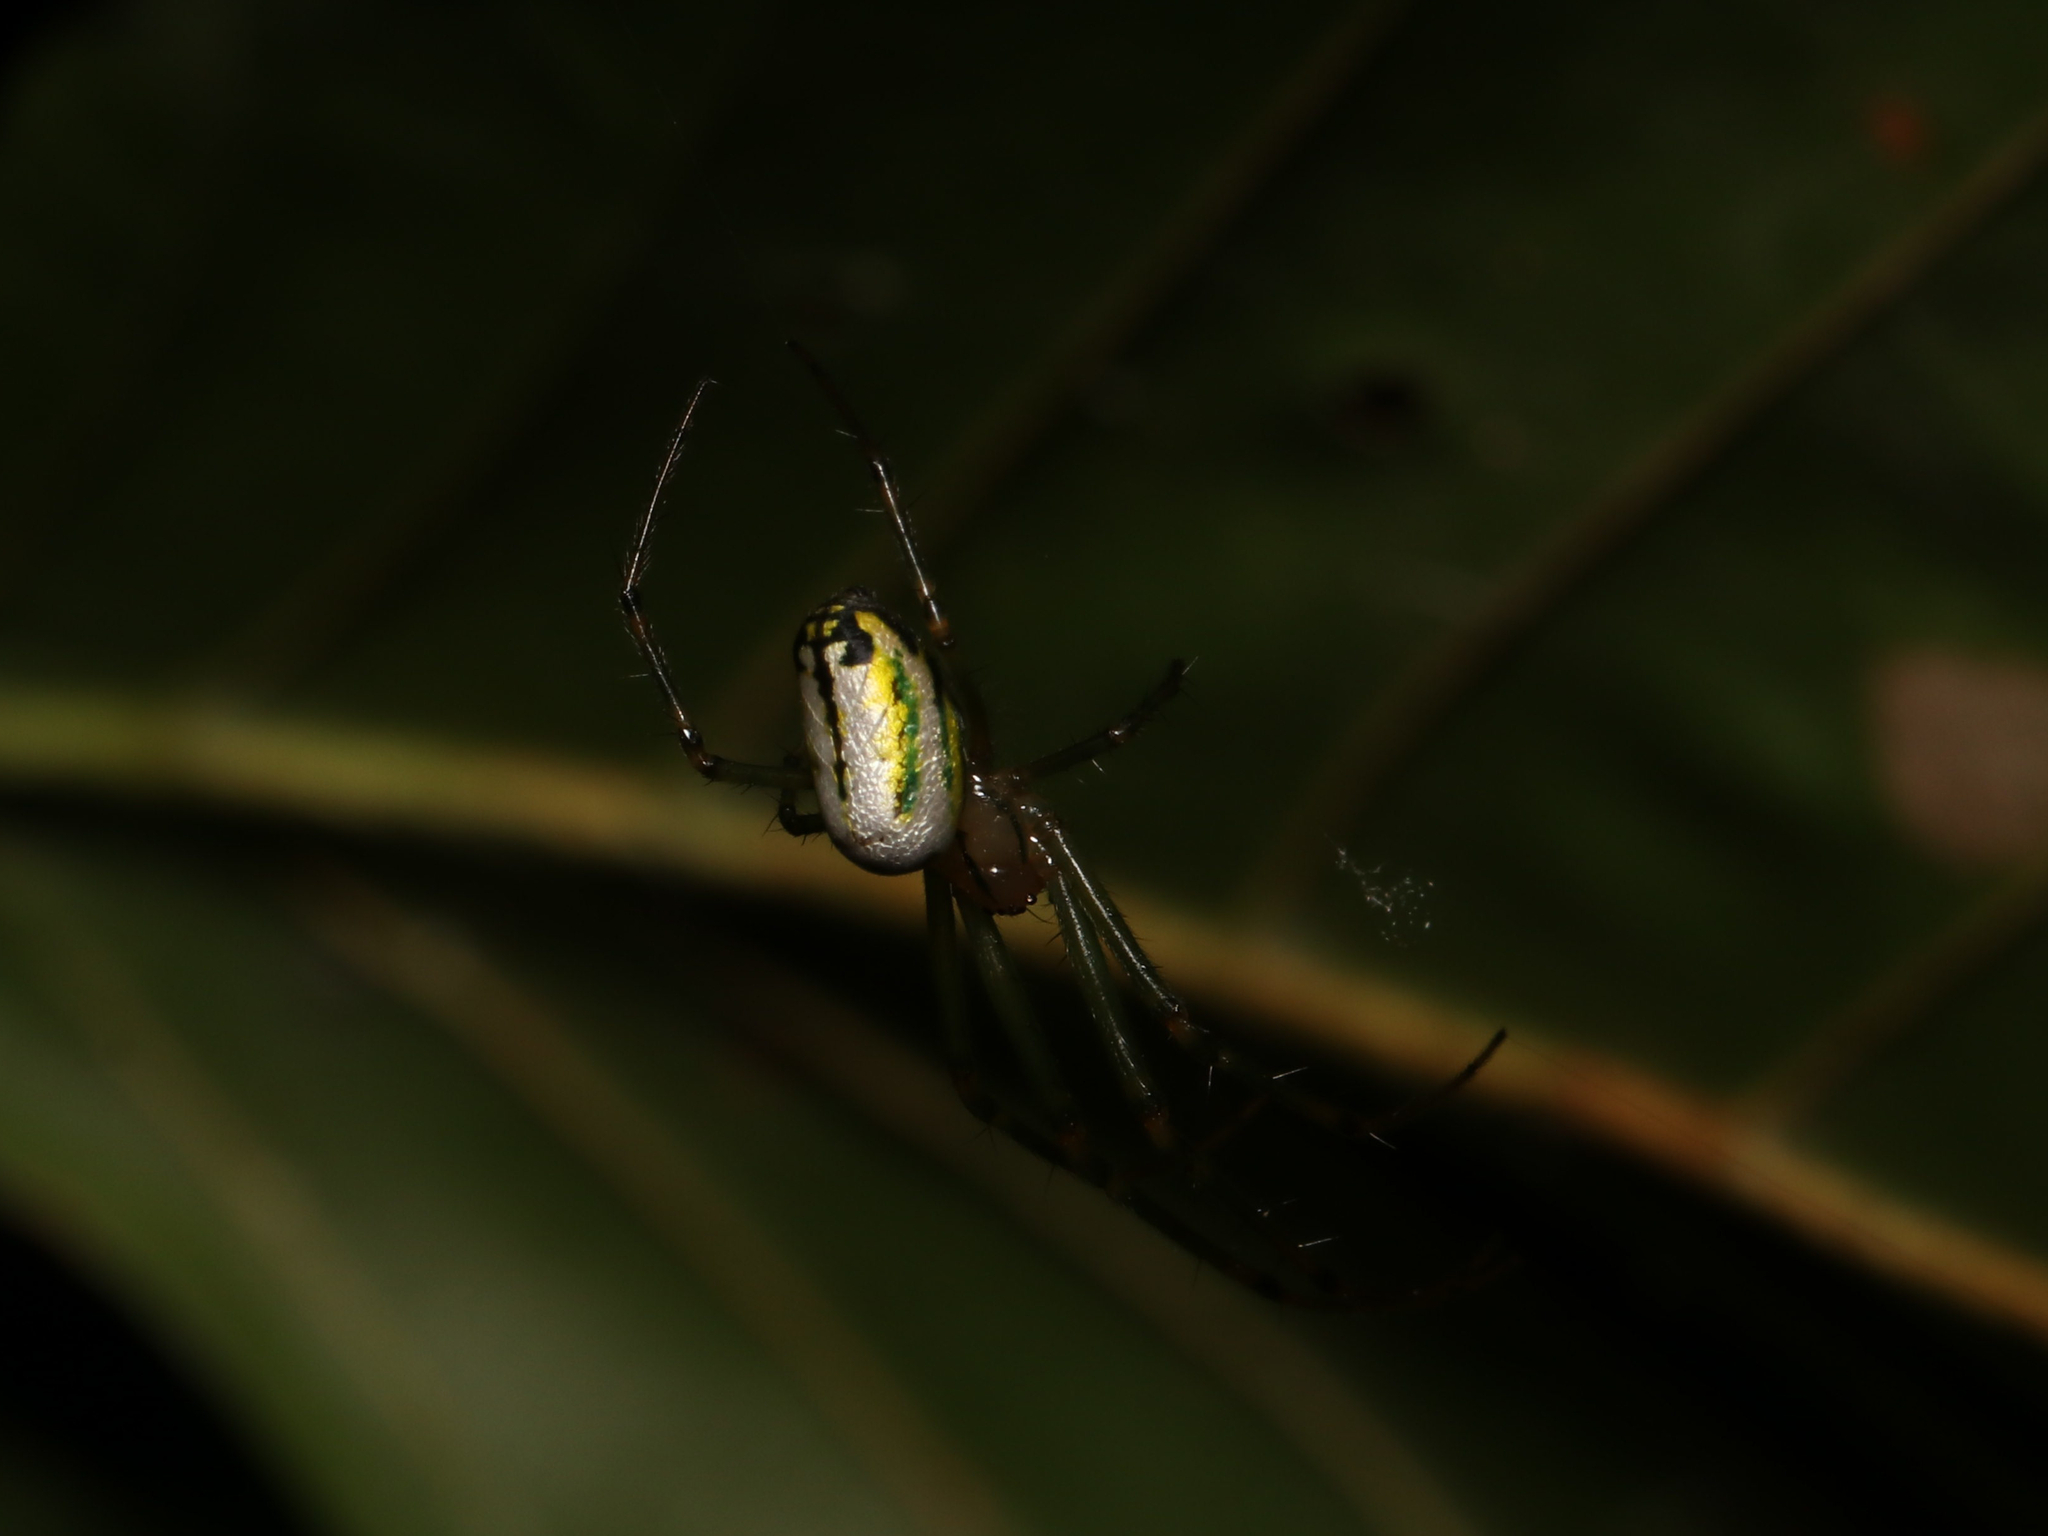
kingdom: Animalia
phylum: Arthropoda
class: Arachnida
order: Araneae
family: Tetragnathidae
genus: Leucauge
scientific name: Leucauge venusta
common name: Longjawed orb weavers
